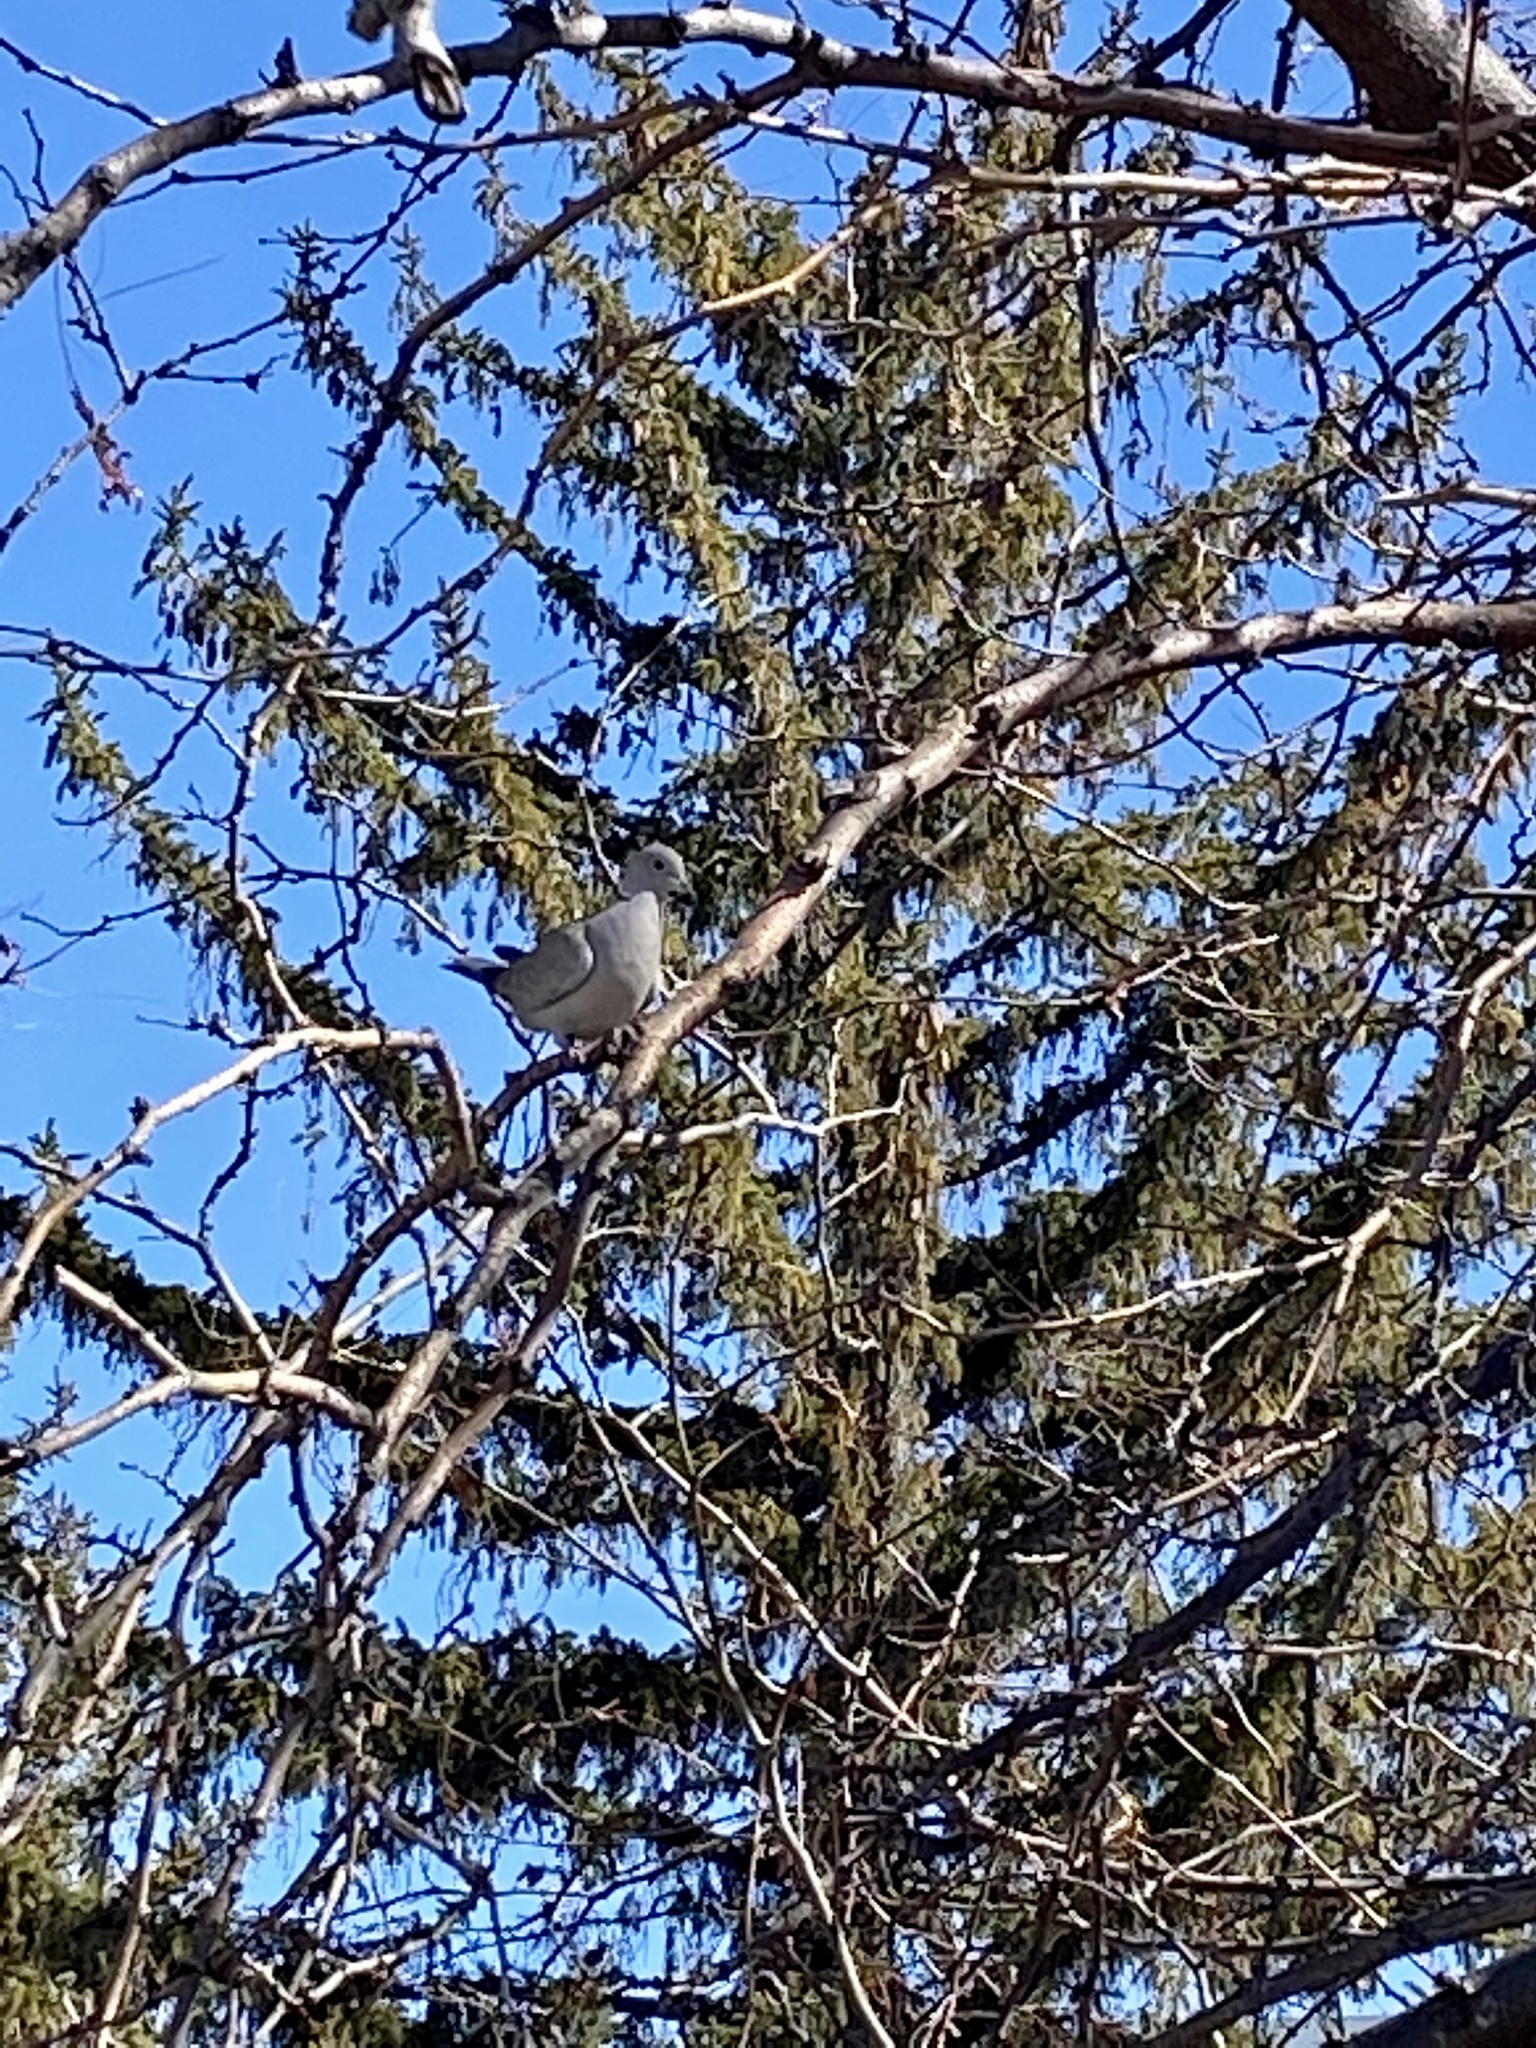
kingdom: Animalia
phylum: Chordata
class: Aves
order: Columbiformes
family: Columbidae
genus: Streptopelia
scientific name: Streptopelia decaocto
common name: Eurasian collared dove
